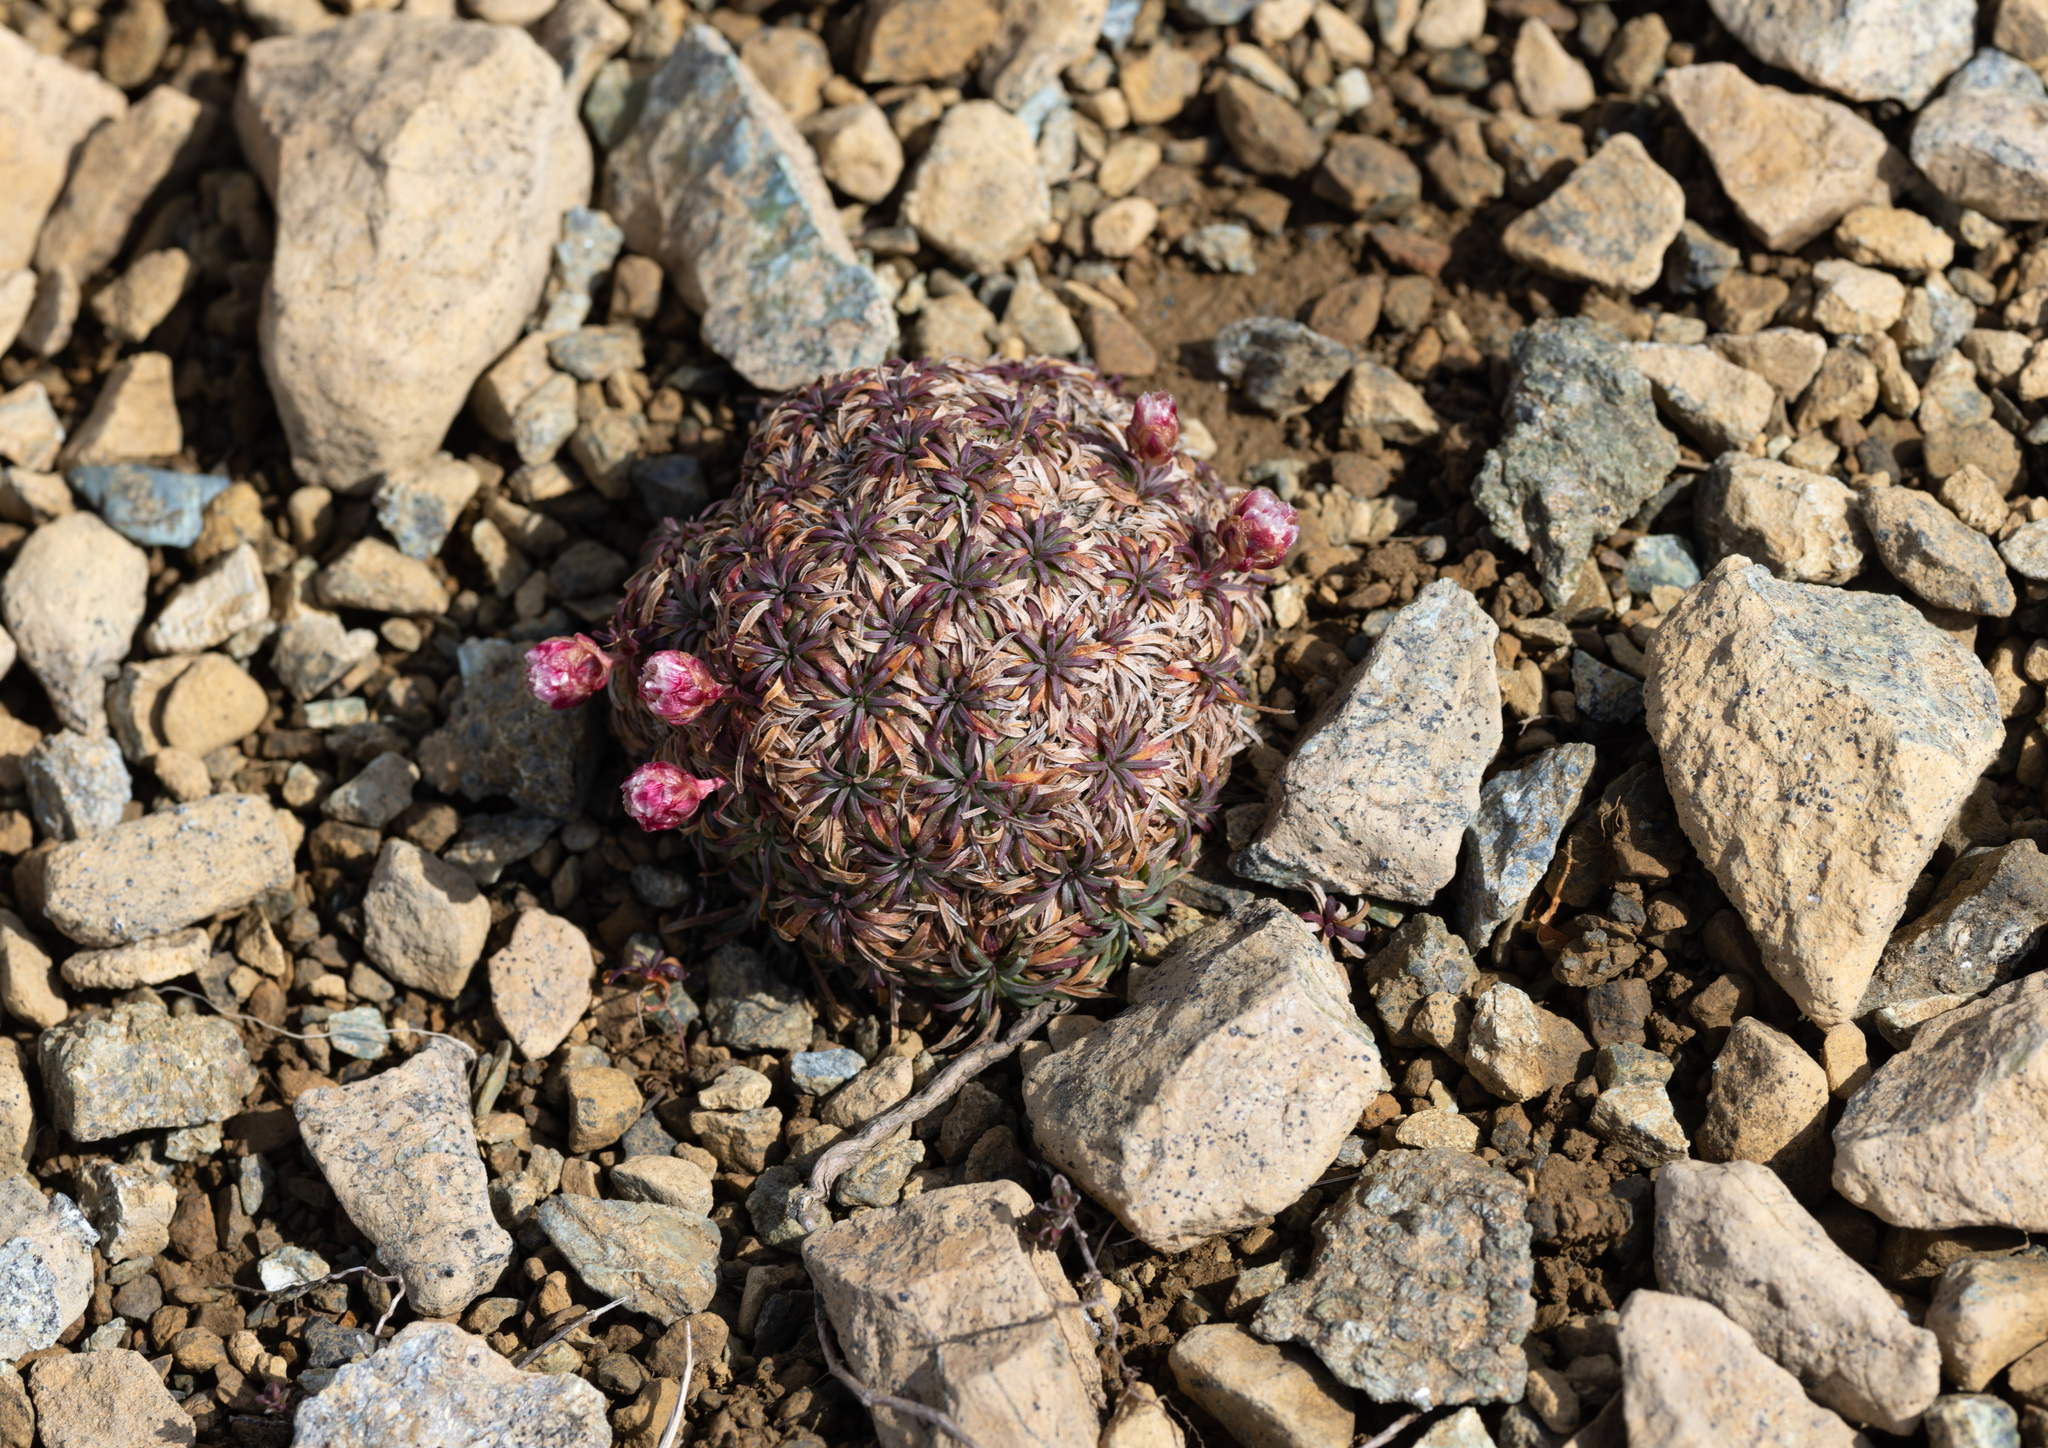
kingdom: Plantae
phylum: Tracheophyta
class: Magnoliopsida
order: Caryophyllales
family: Plumbaginaceae
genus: Armeria
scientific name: Armeria maritima
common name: Thrift
